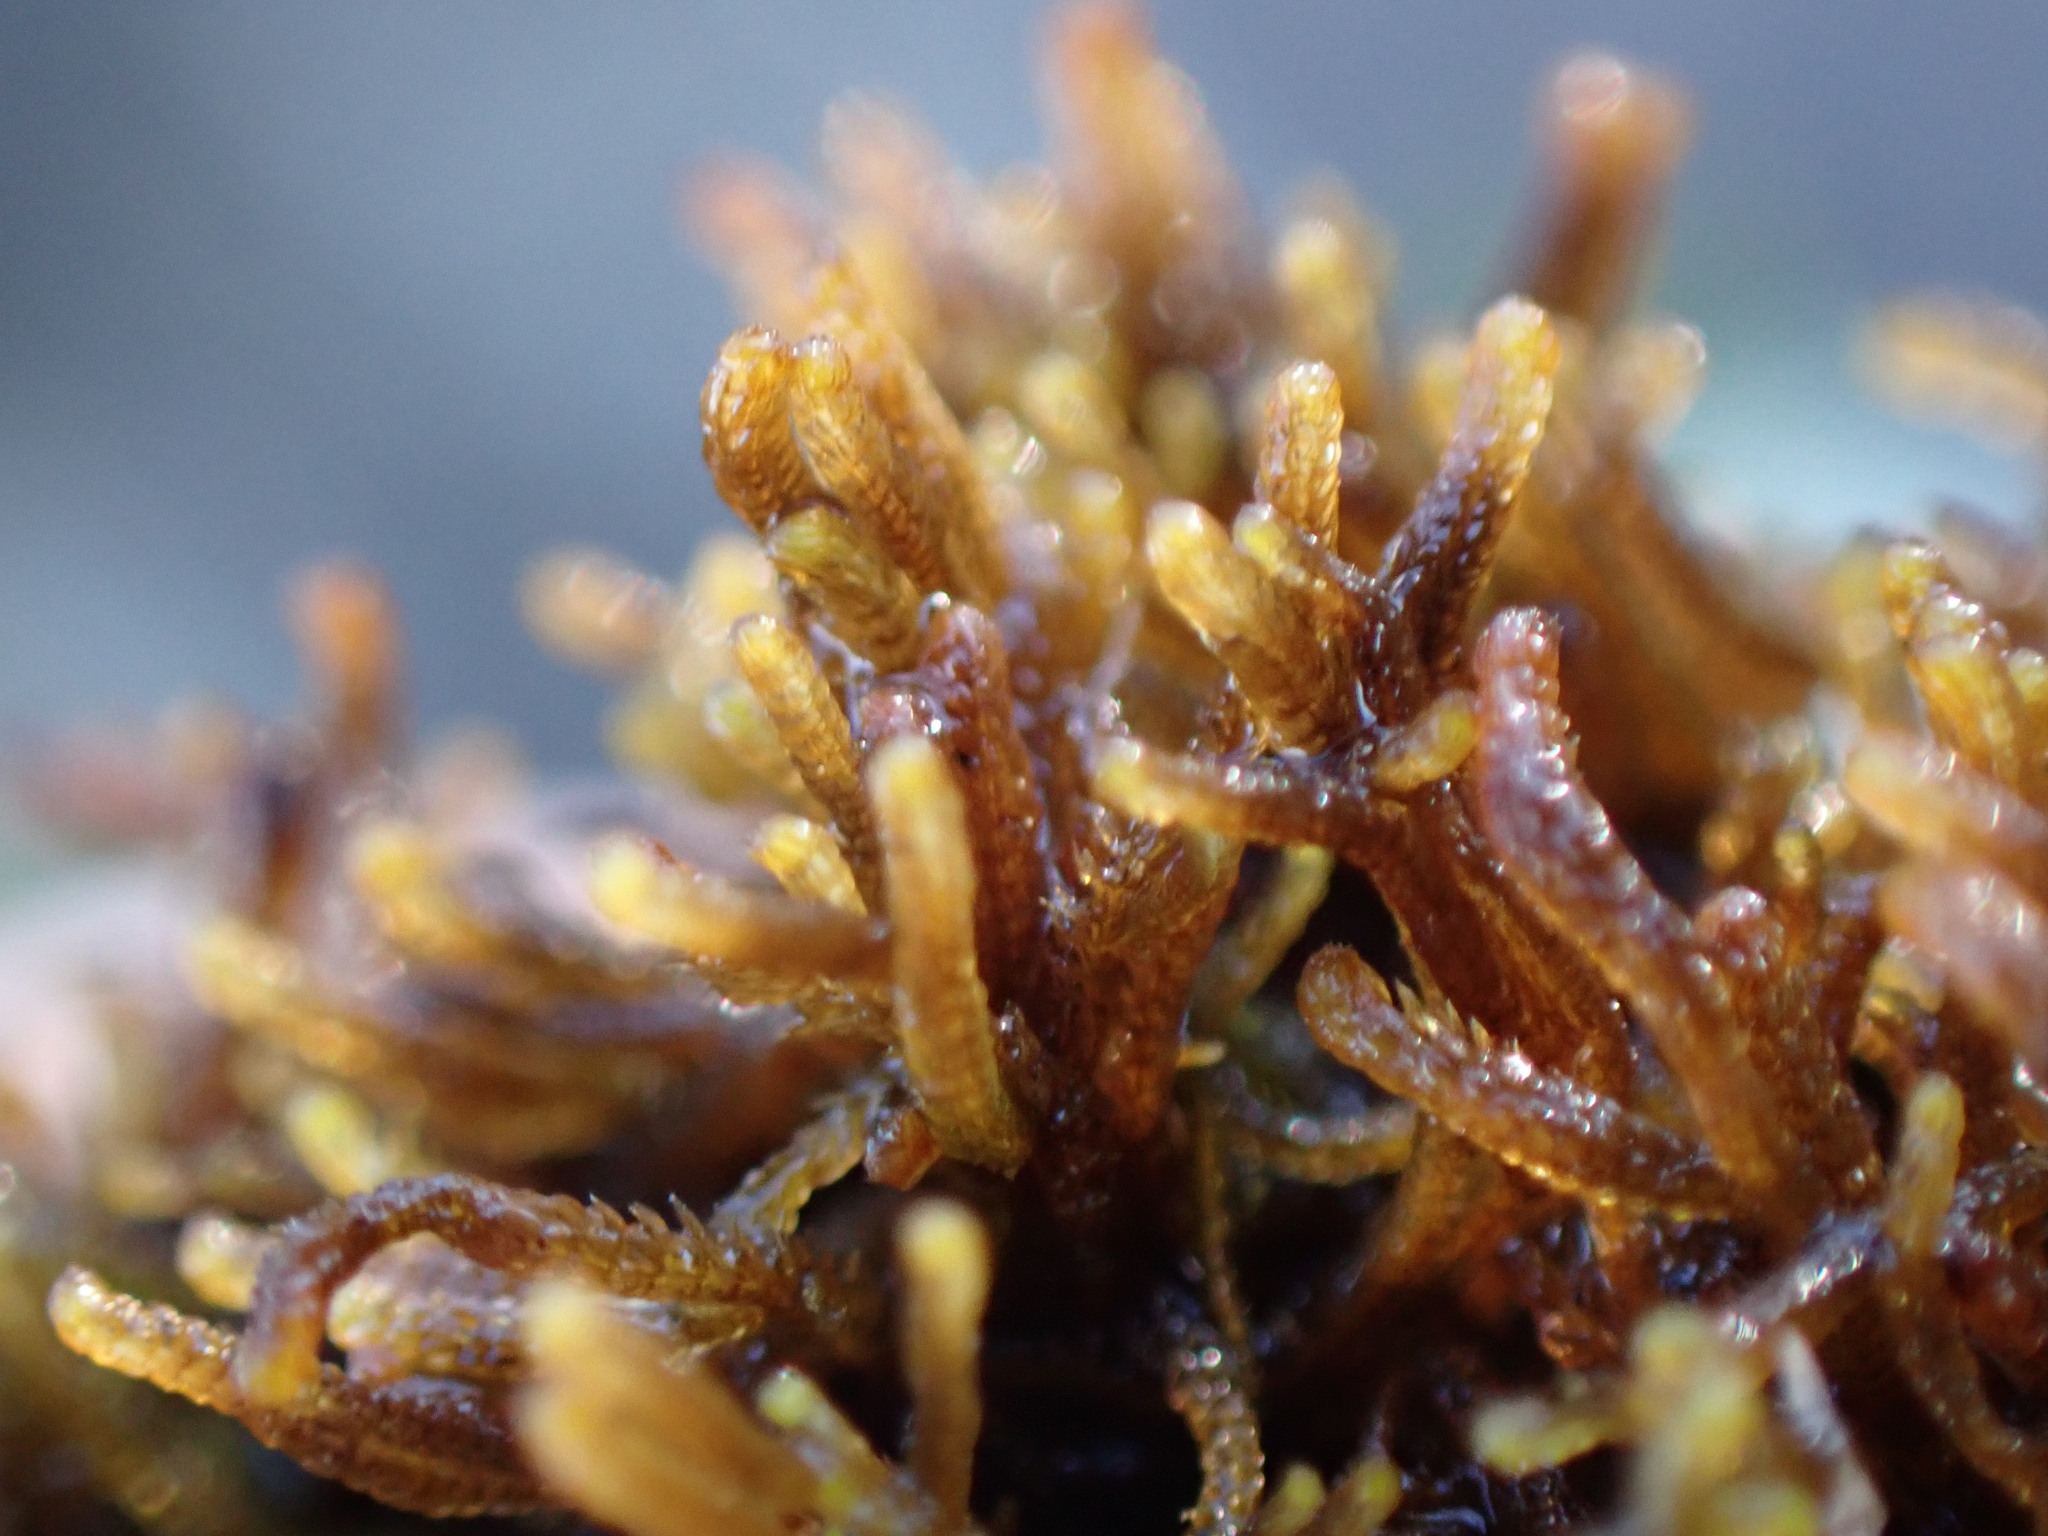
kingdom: Plantae
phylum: Marchantiophyta
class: Jungermanniopsida
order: Jungermanniales
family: Anastrophyllaceae
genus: Tetralophozia
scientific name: Tetralophozia setiformis
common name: Monster pawwort
